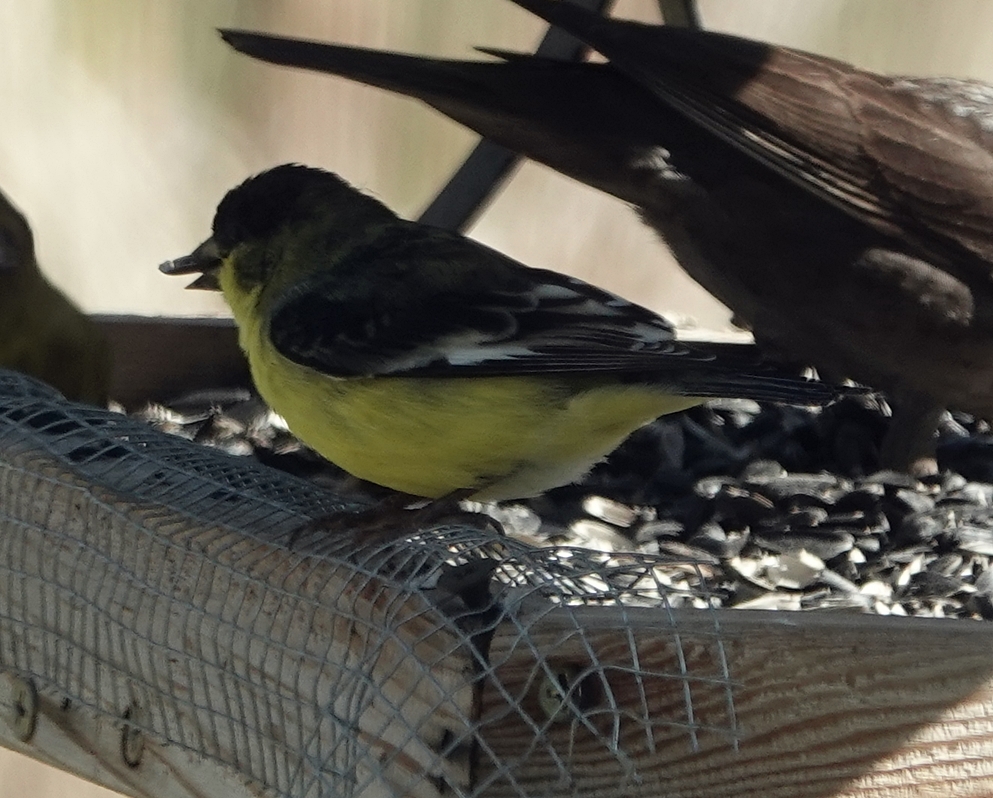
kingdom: Animalia
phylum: Chordata
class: Aves
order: Passeriformes
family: Fringillidae
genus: Spinus
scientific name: Spinus psaltria
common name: Lesser goldfinch
